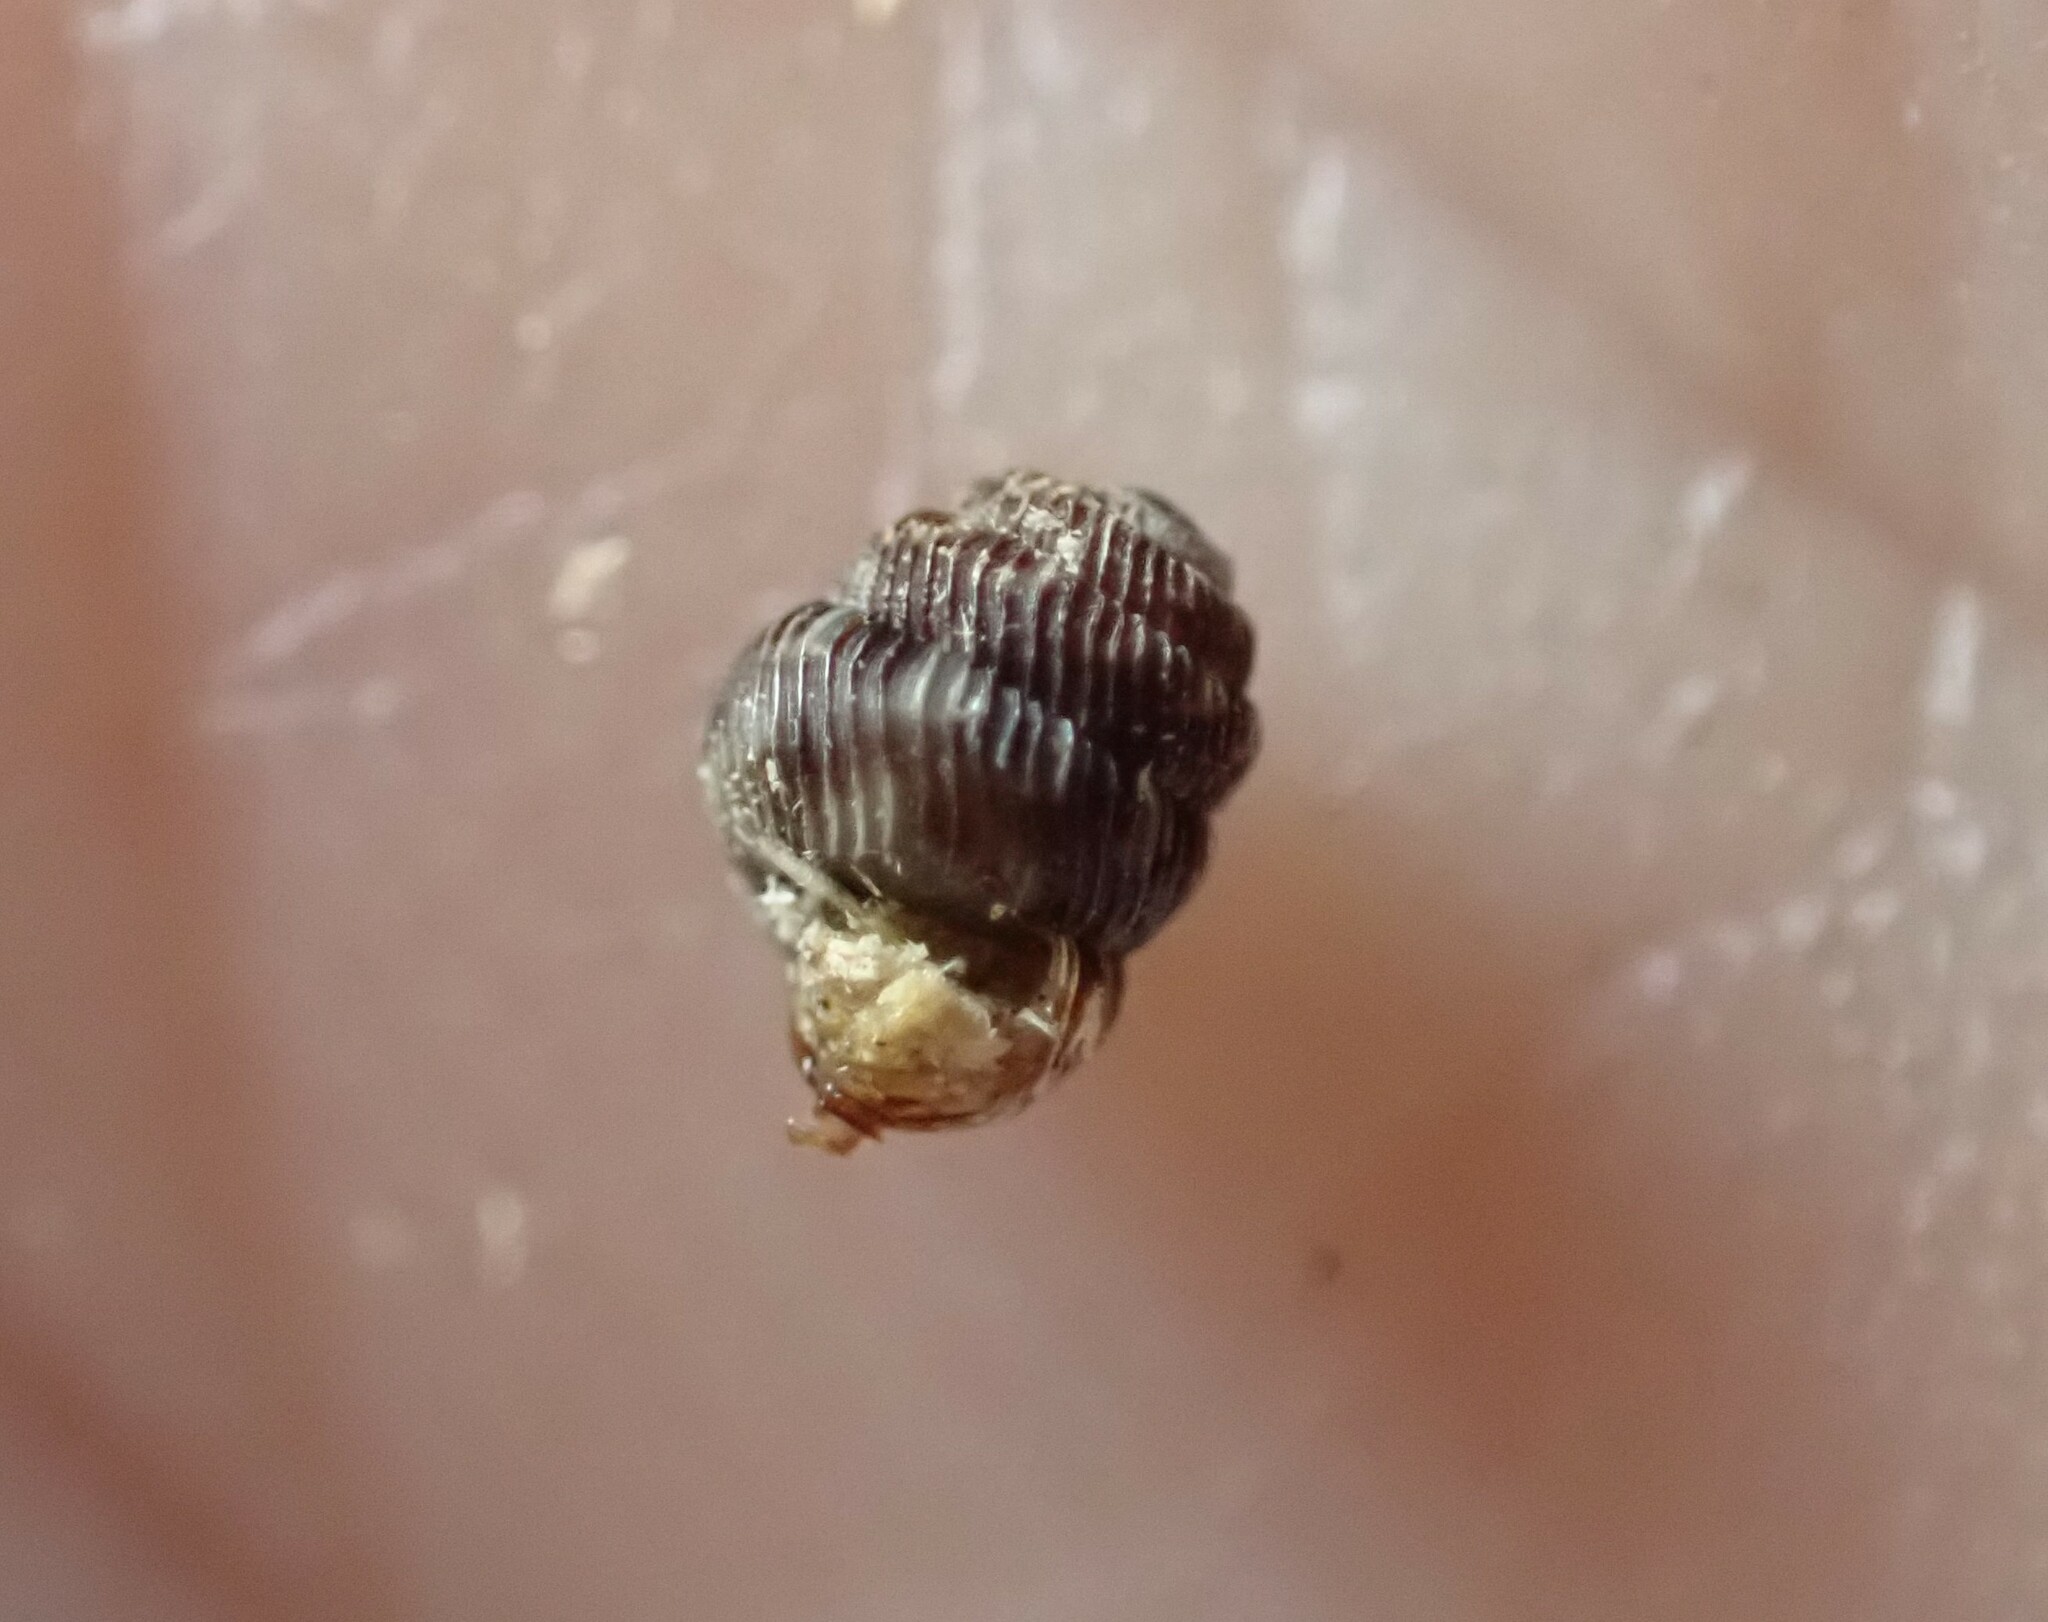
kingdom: Animalia
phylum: Mollusca
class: Gastropoda
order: Stylommatophora
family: Charopidae
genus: Phenacharopa
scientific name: Phenacharopa novoseelandica
